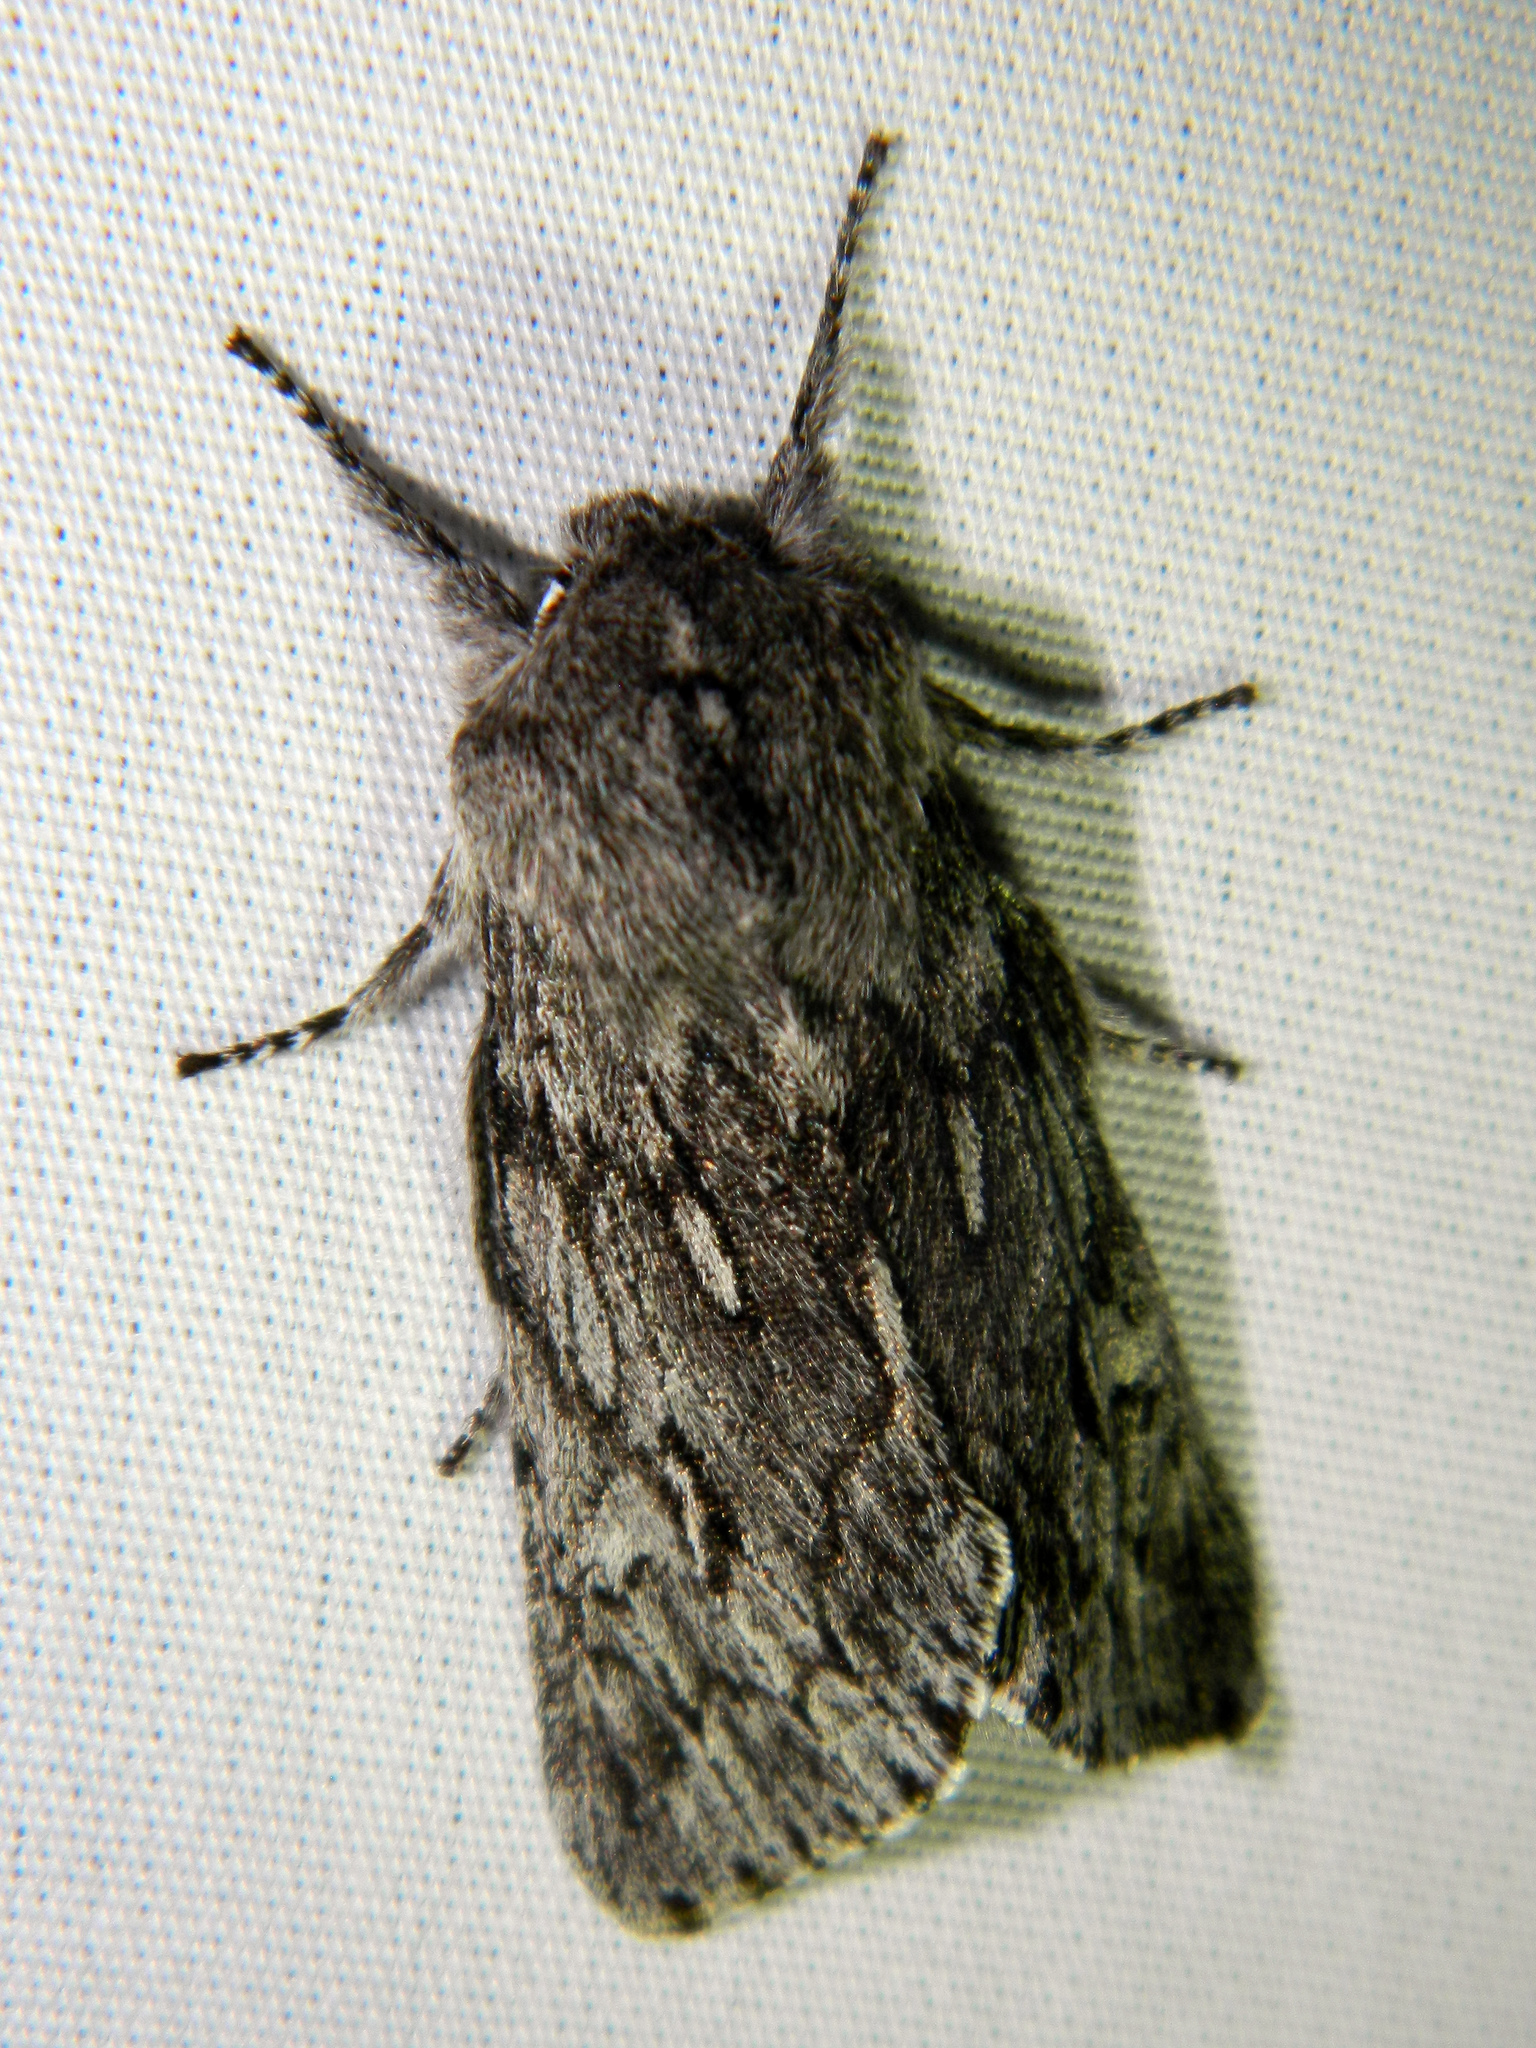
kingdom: Animalia
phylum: Arthropoda
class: Insecta
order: Lepidoptera
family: Noctuidae
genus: Brachionycha
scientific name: Brachionycha borealis
